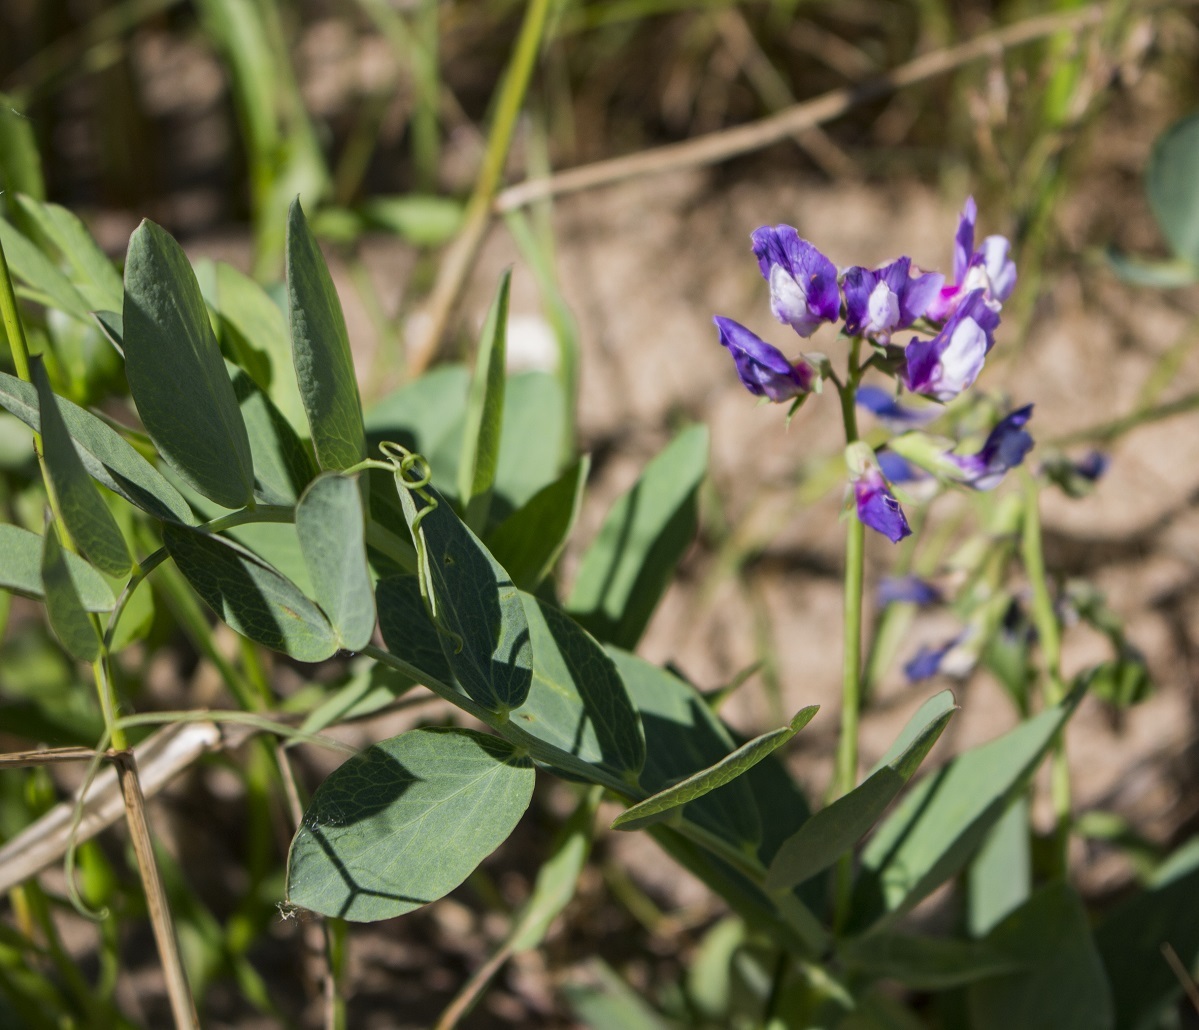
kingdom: Plantae
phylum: Tracheophyta
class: Magnoliopsida
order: Fabales
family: Fabaceae
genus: Lathyrus
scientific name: Lathyrus japonicus
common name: Sea pea
